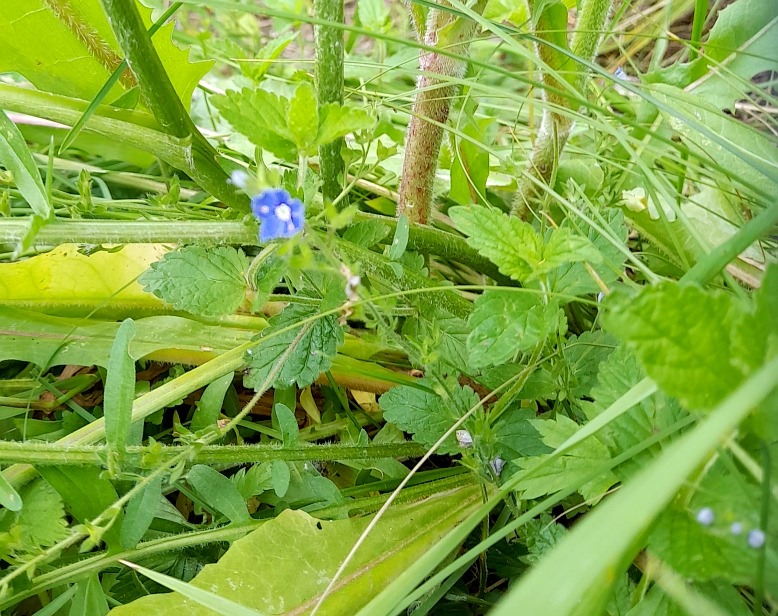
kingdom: Plantae
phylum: Tracheophyta
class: Magnoliopsida
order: Lamiales
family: Plantaginaceae
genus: Veronica
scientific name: Veronica chamaedrys
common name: Germander speedwell
